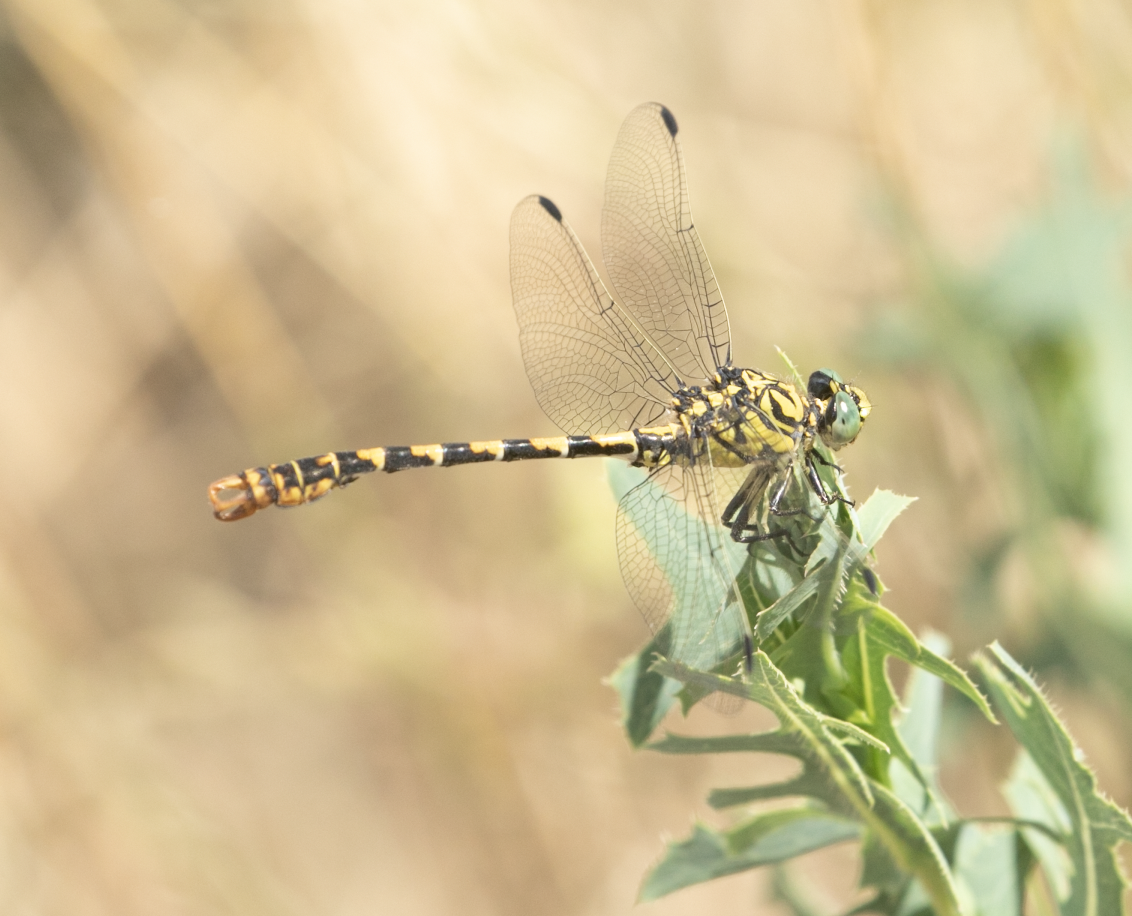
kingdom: Animalia
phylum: Arthropoda
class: Insecta
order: Odonata
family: Gomphidae
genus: Onychogomphus
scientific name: Onychogomphus forcipatus
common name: Small pincertail
